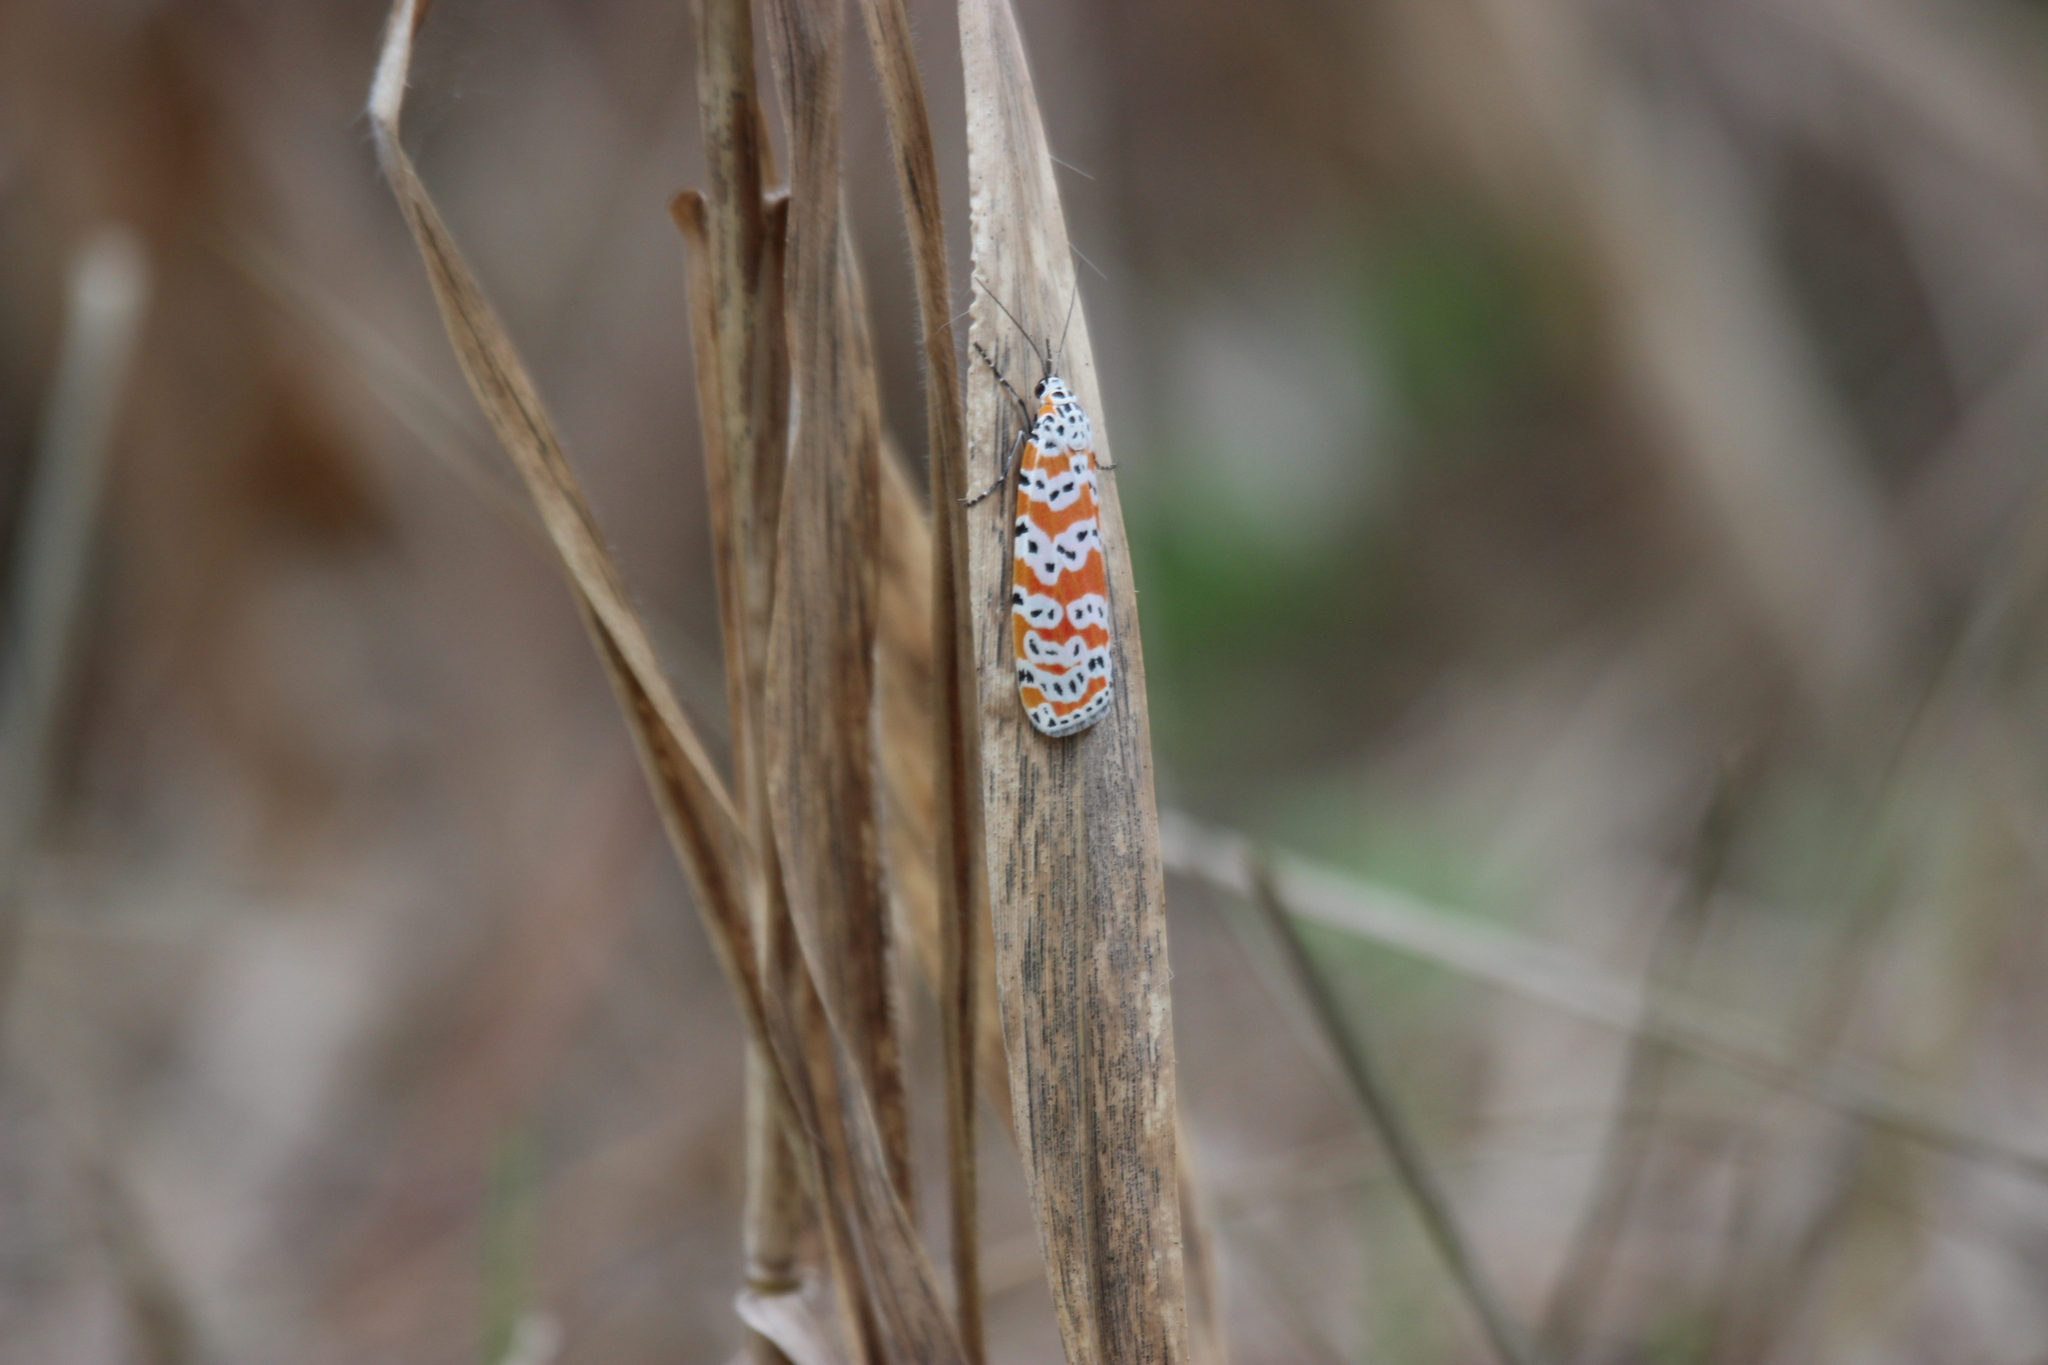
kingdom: Animalia
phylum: Arthropoda
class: Insecta
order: Lepidoptera
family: Erebidae
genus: Utetheisa
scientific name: Utetheisa ornatrix
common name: Beautiful utetheisa
